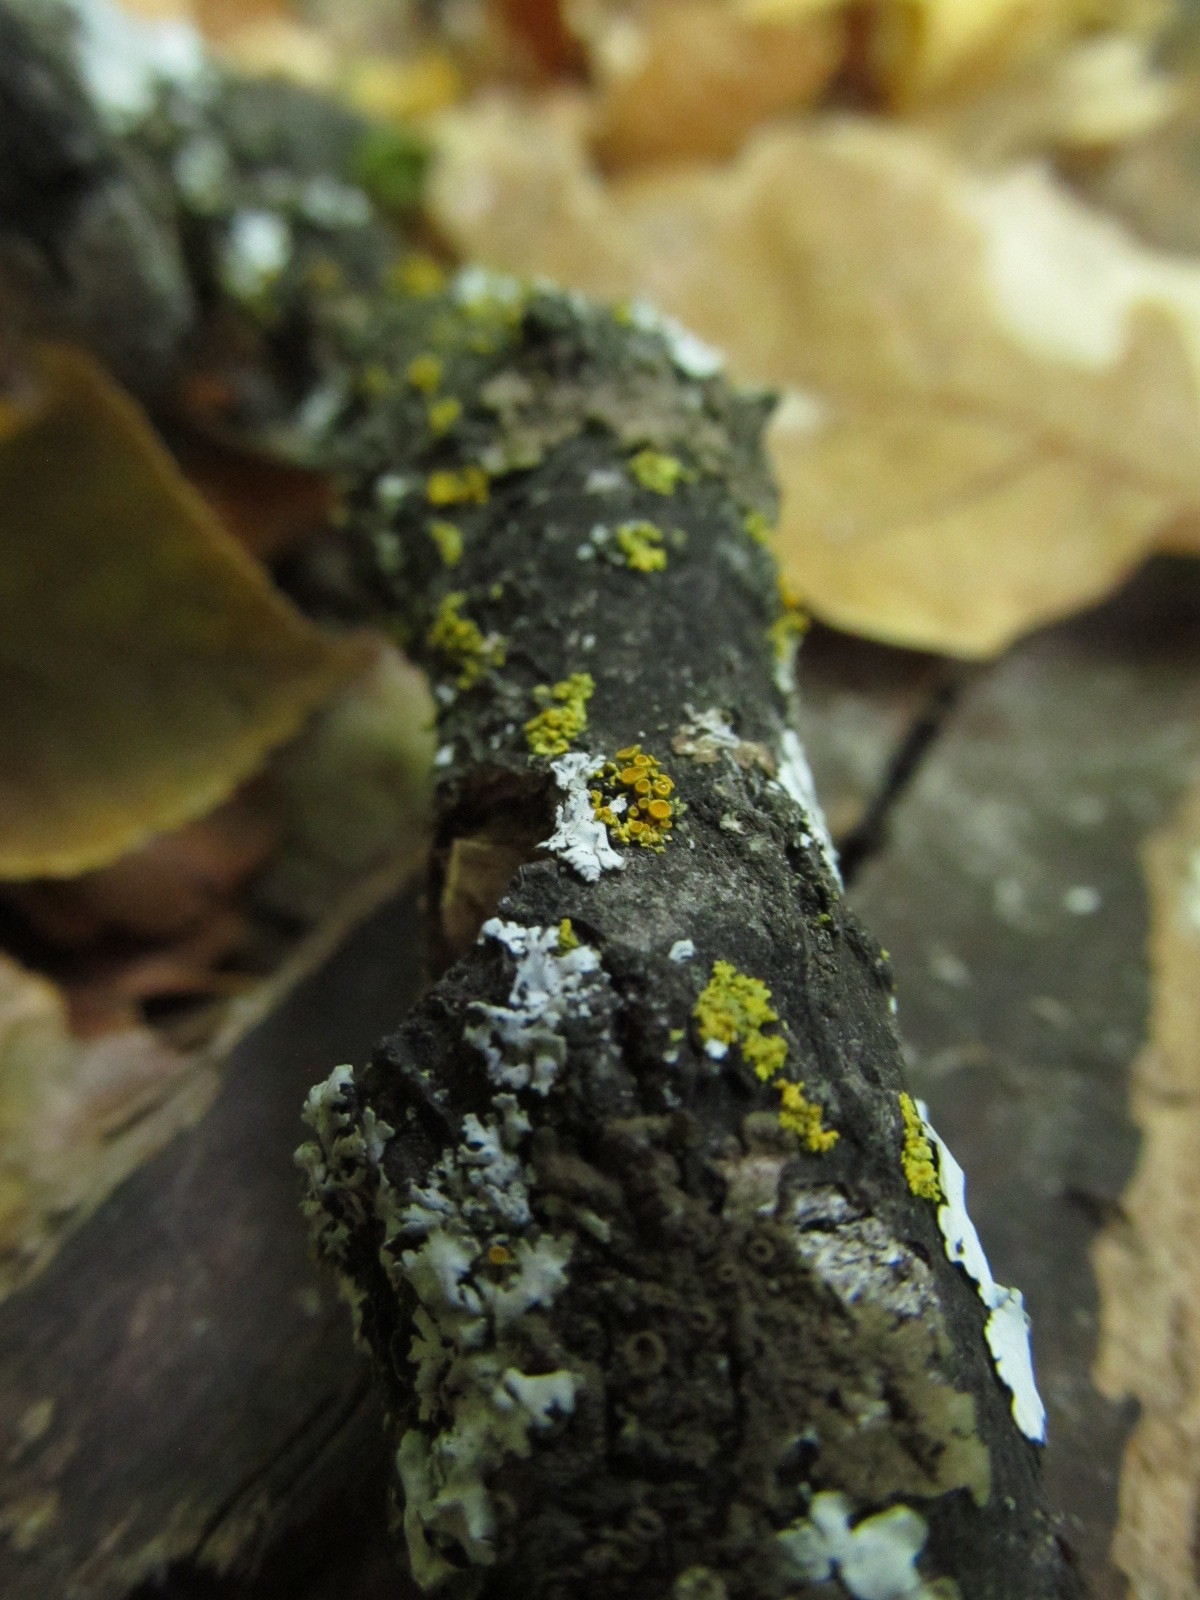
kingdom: Fungi
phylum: Ascomycota
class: Lecanoromycetes
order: Teloschistales
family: Teloschistaceae
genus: Xanthoria
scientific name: Xanthoria parietina
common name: Common orange lichen
